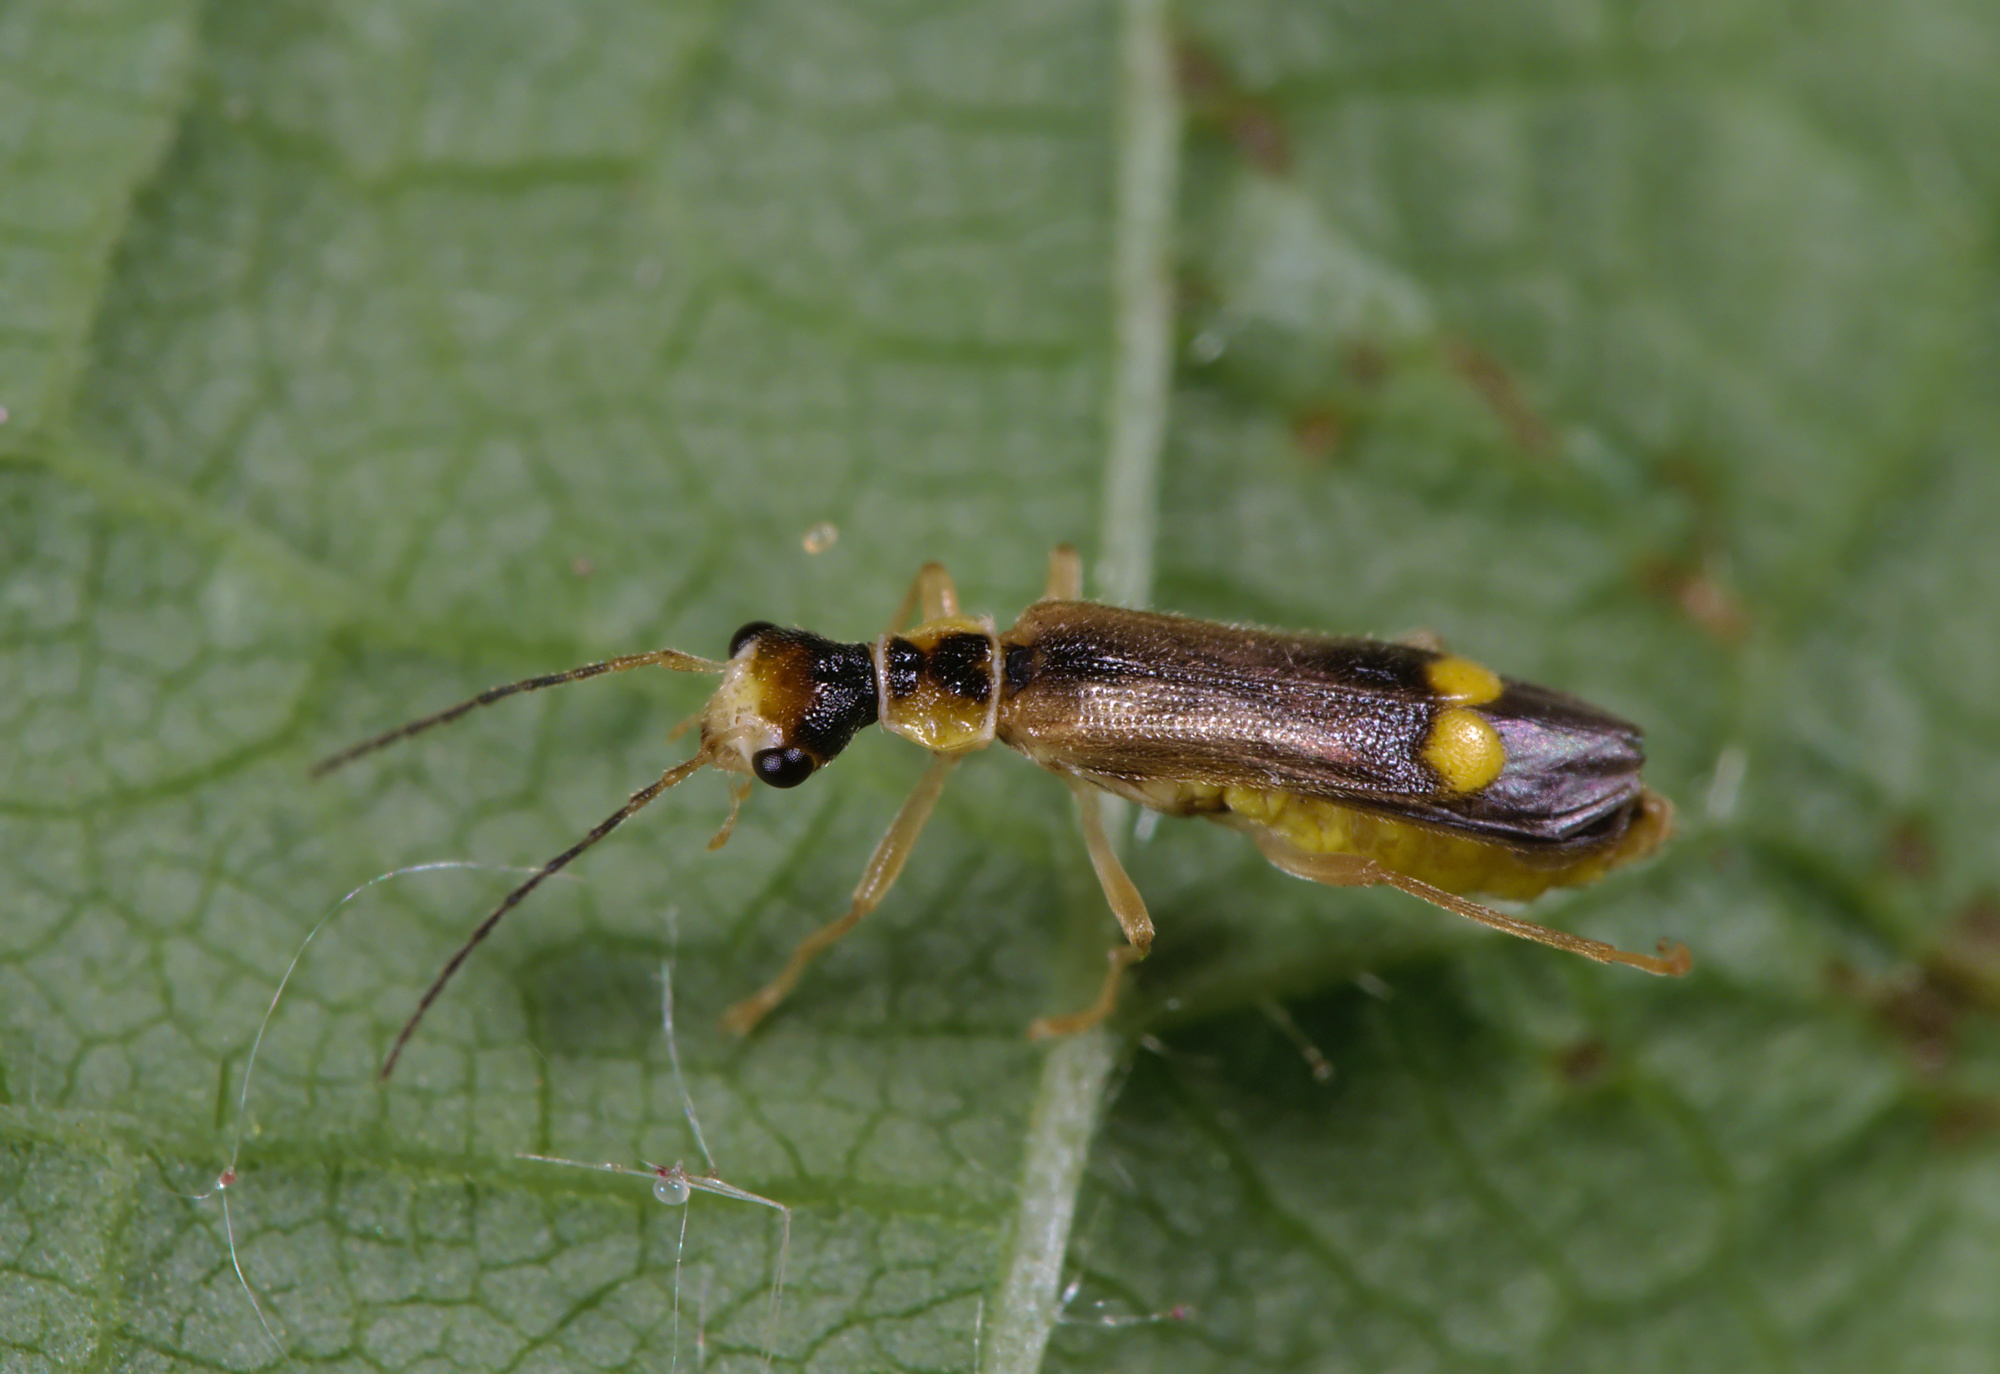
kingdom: Animalia
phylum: Arthropoda
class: Insecta
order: Coleoptera
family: Cantharidae
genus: Malthinus
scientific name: Malthinus seriepunctatus
